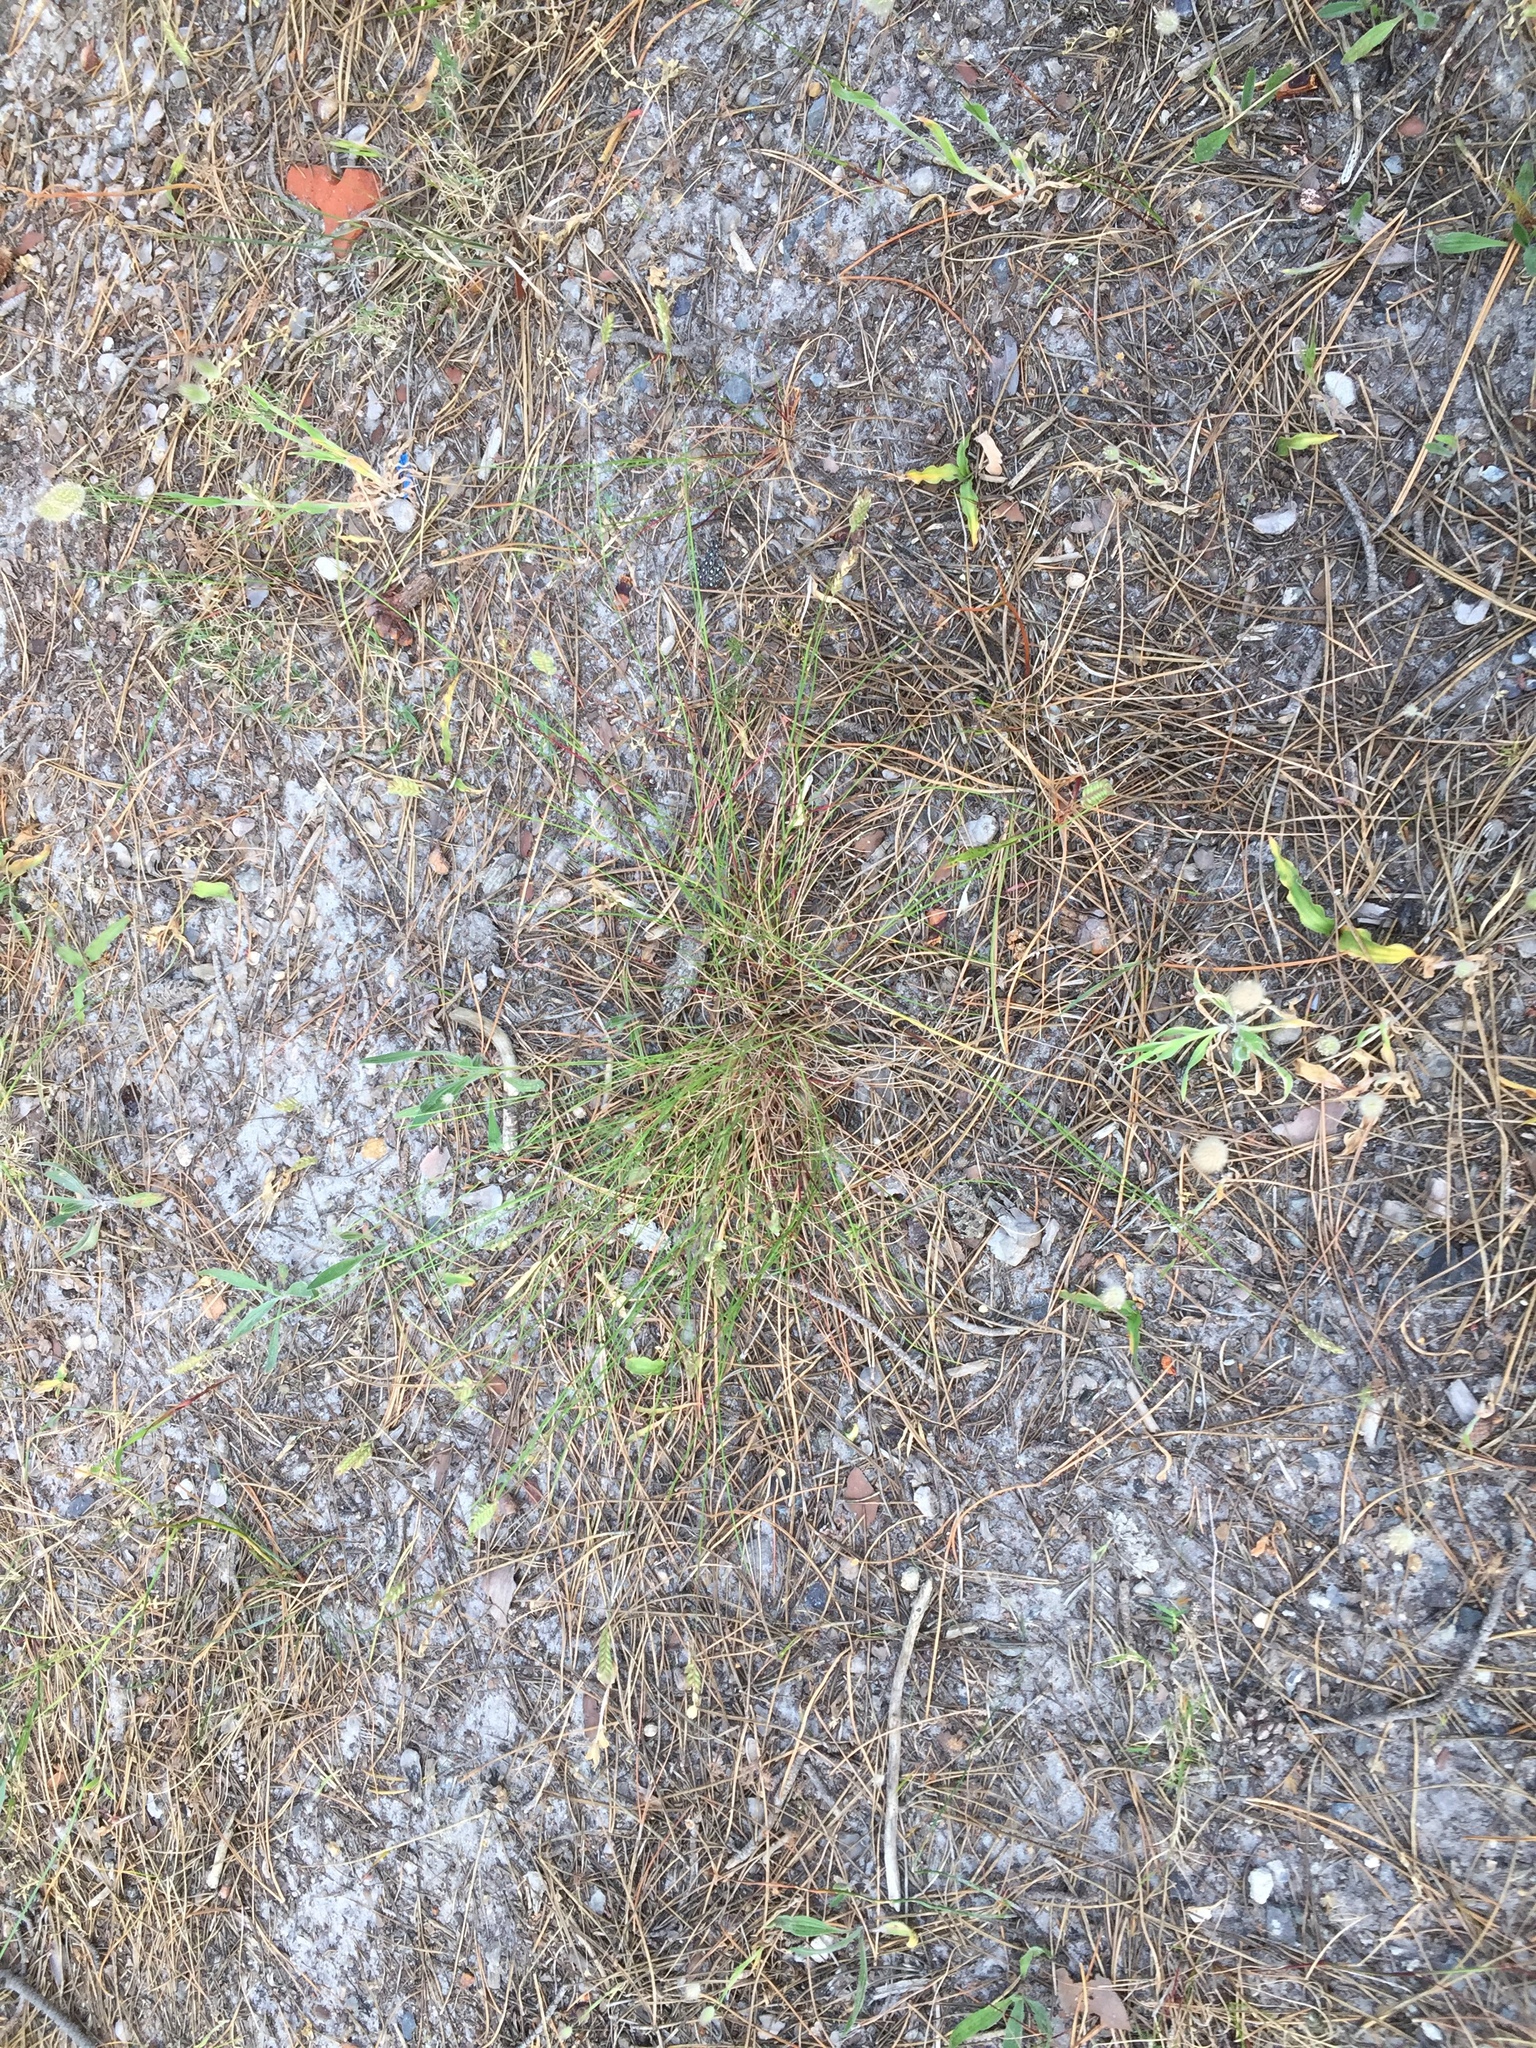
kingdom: Plantae
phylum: Tracheophyta
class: Liliopsida
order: Poales
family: Poaceae
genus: Tribolium
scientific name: Tribolium uniolae
